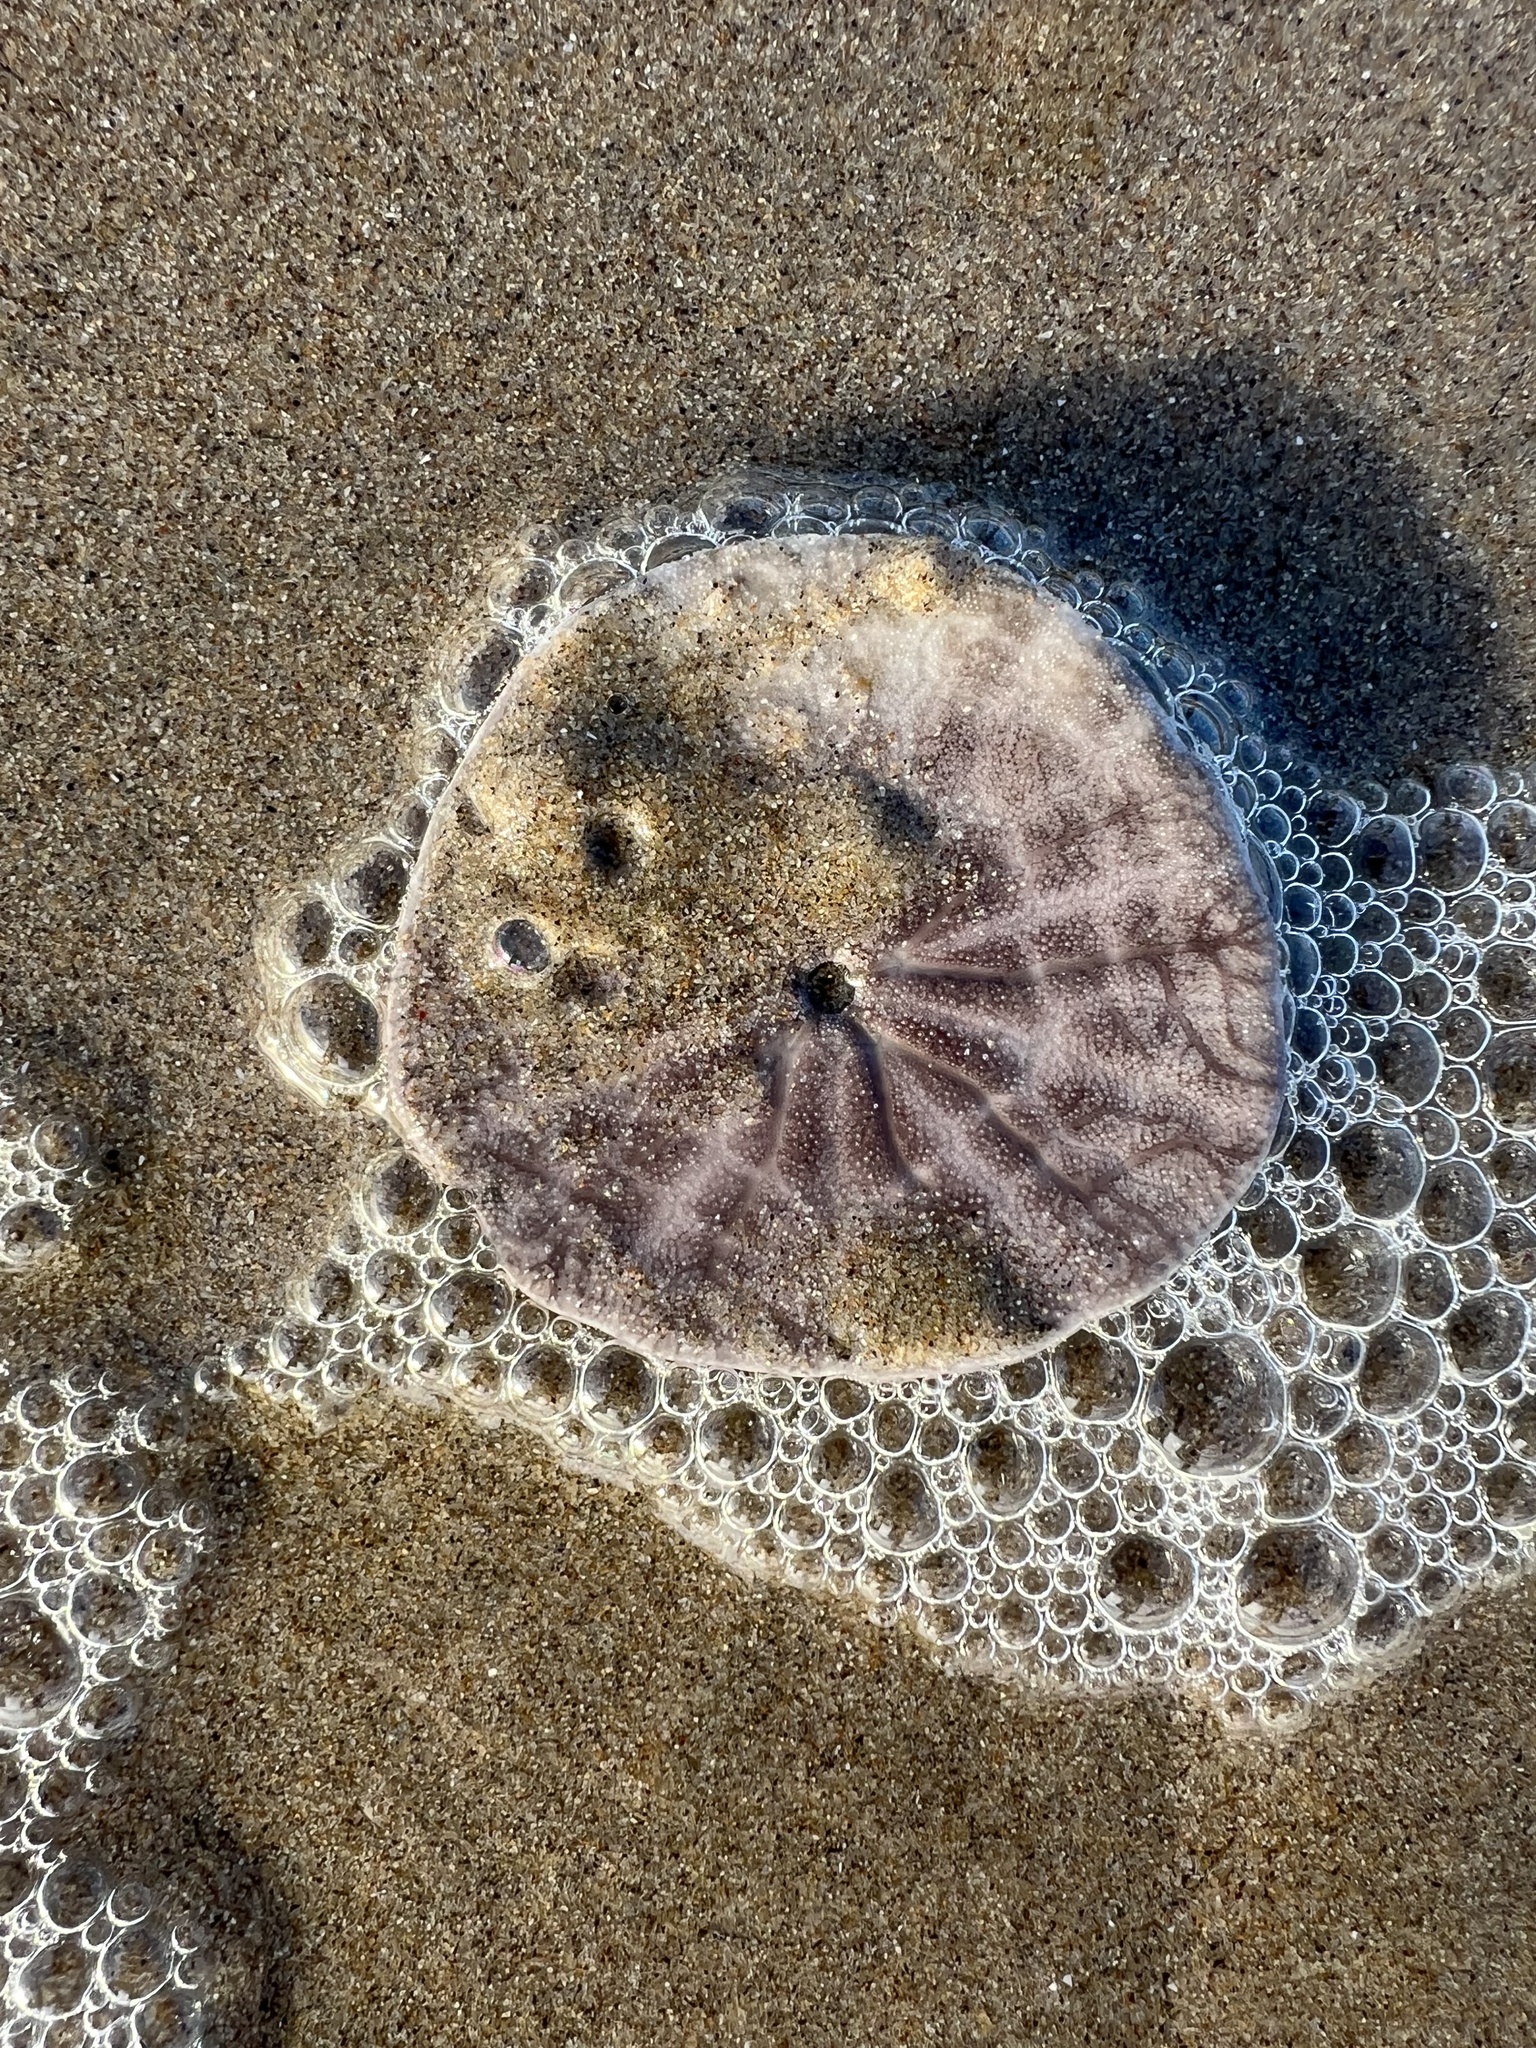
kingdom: Animalia
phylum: Echinodermata
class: Echinoidea
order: Echinolampadacea
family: Dendrasteridae
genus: Dendraster
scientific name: Dendraster excentricus
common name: Eccentric sand dollar sea urchin
